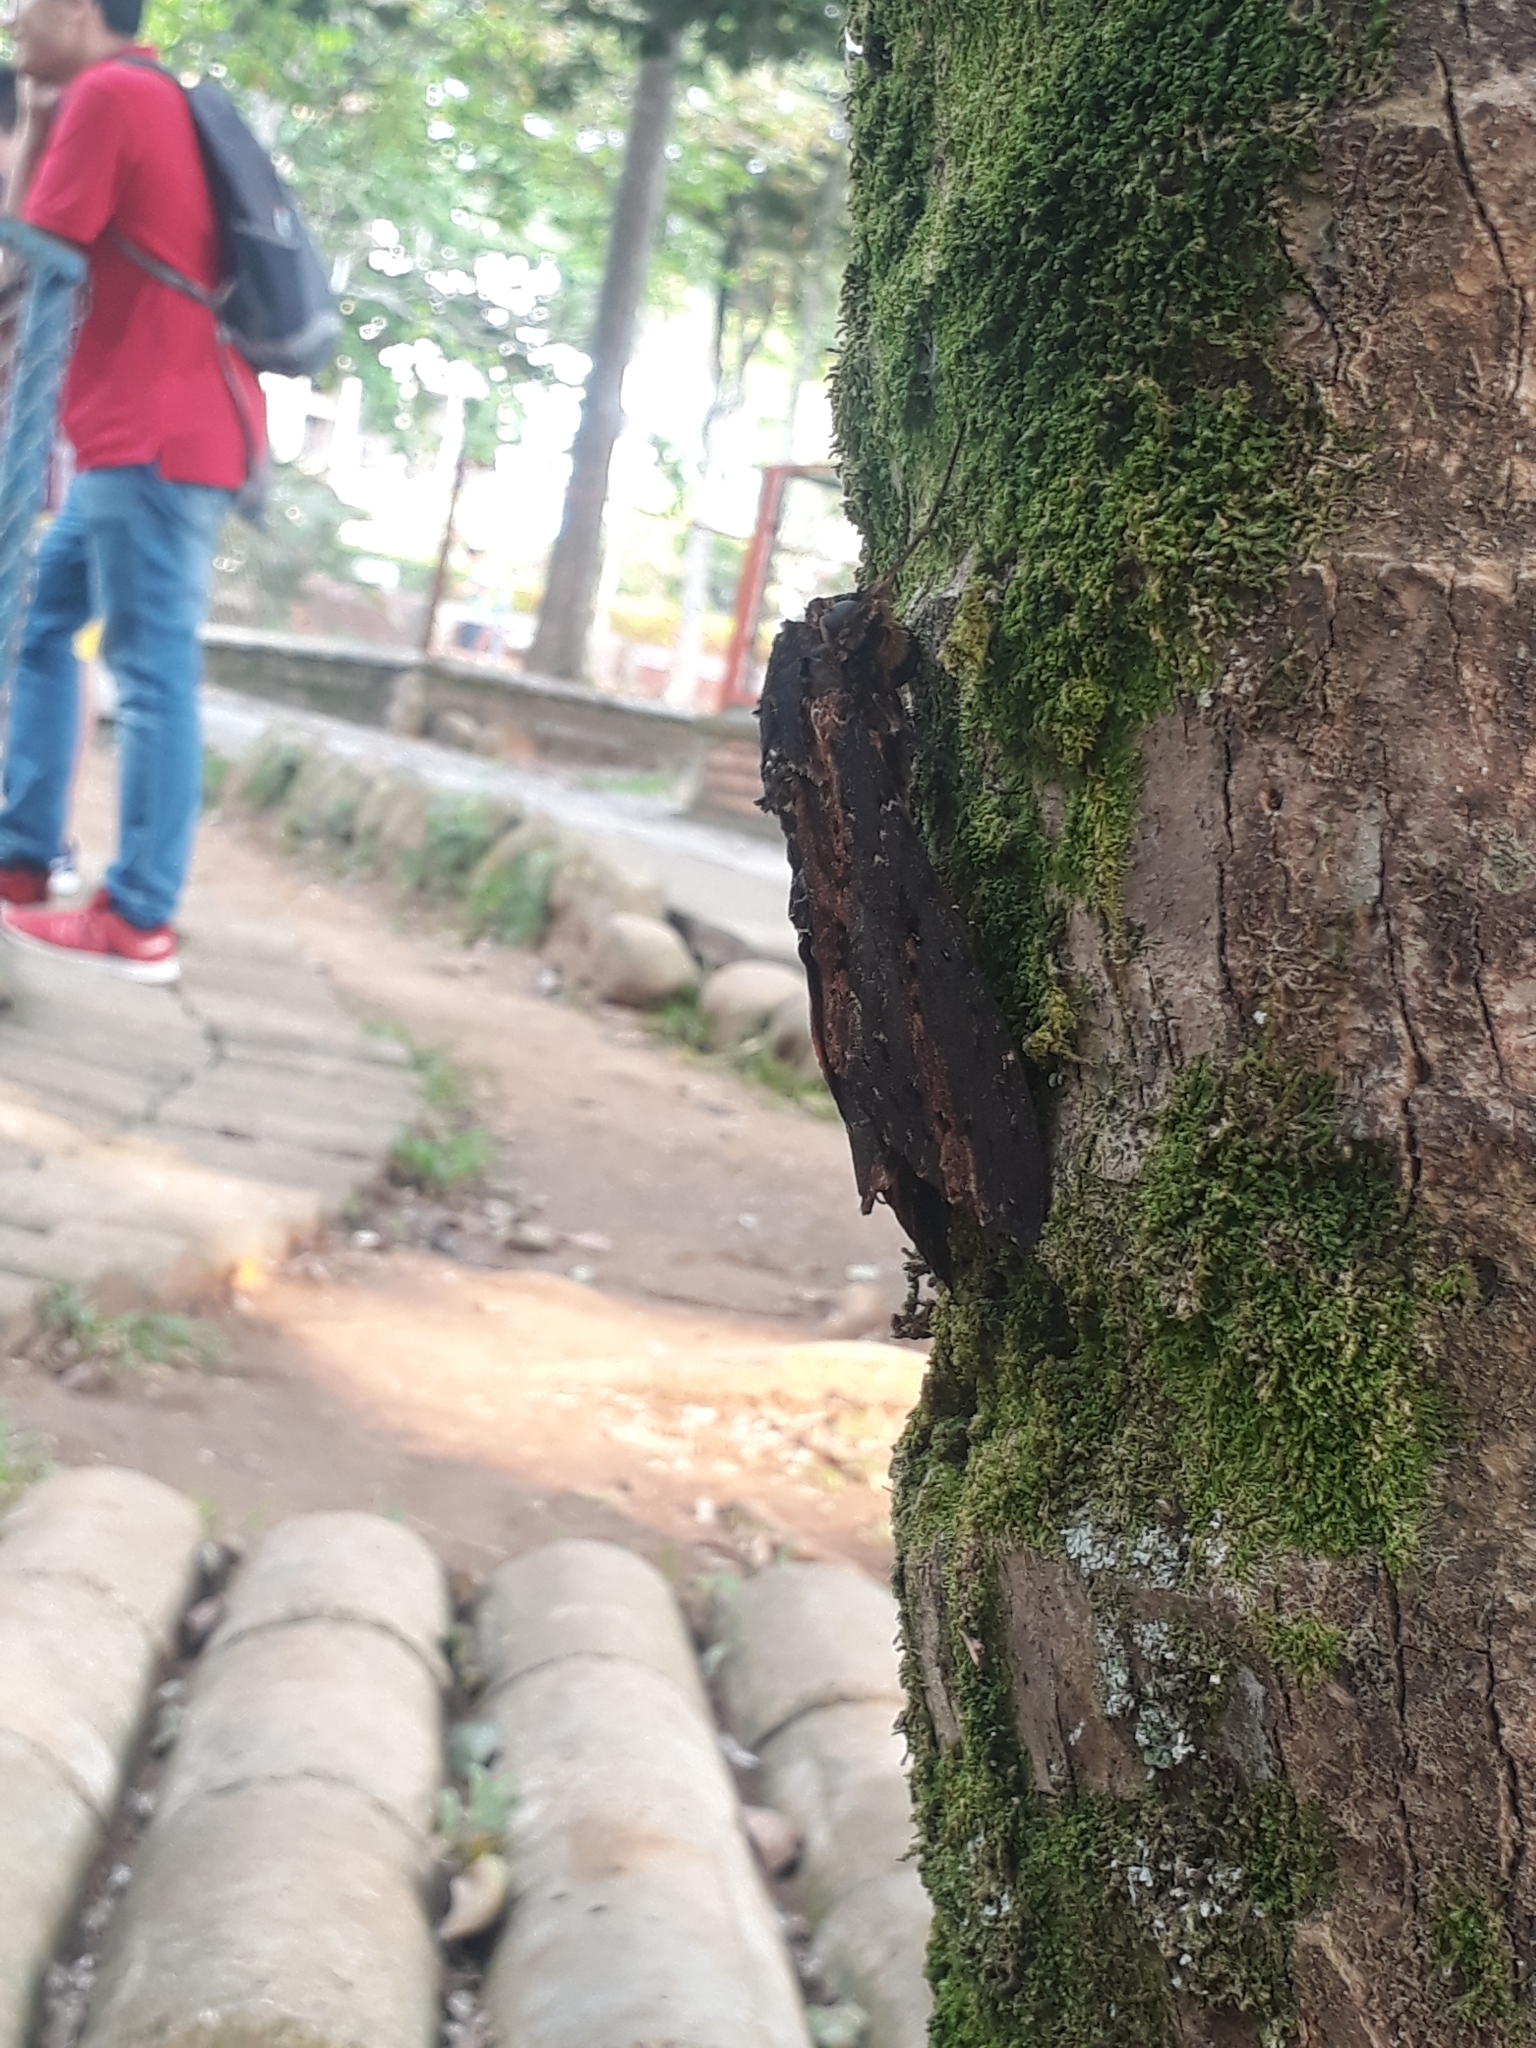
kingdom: Animalia
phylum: Arthropoda
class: Insecta
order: Lepidoptera
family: Sphingidae
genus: Neococytius
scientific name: Neococytius cluentius
